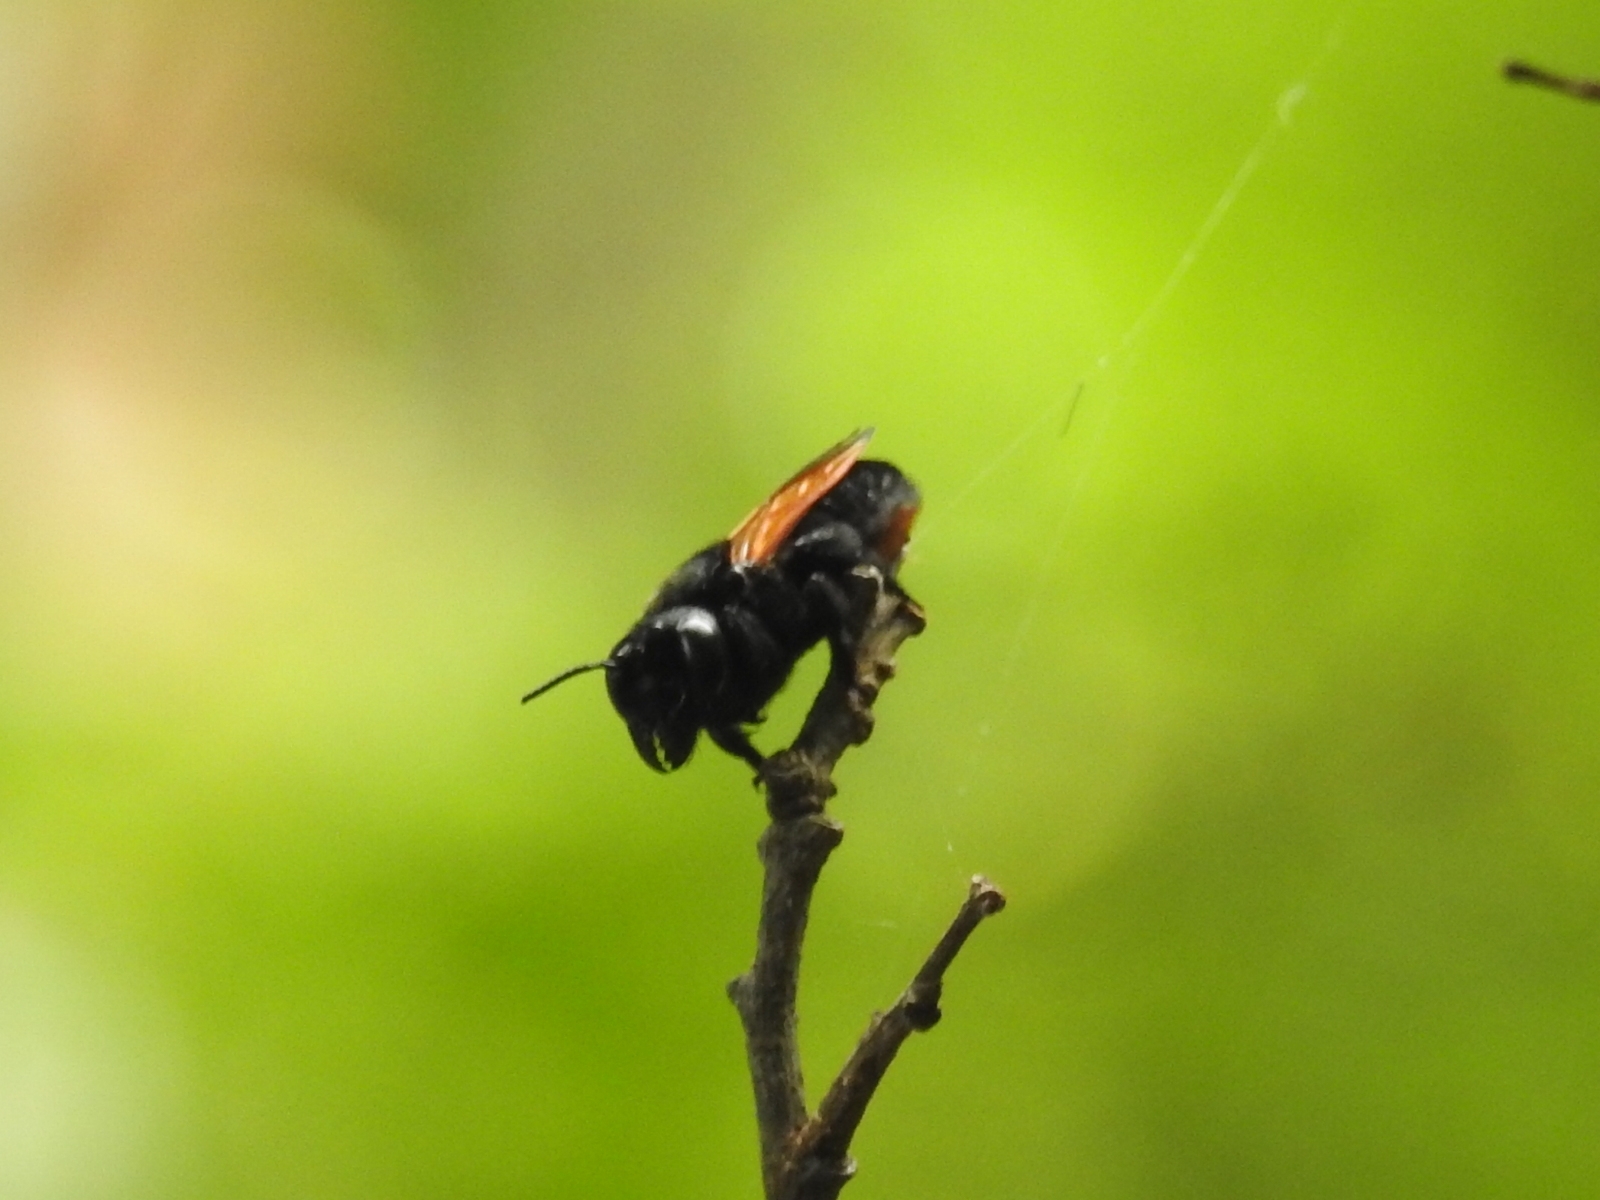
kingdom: Animalia
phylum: Arthropoda
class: Insecta
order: Hymenoptera
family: Megachilidae
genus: Megachile
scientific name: Megachile atrata
